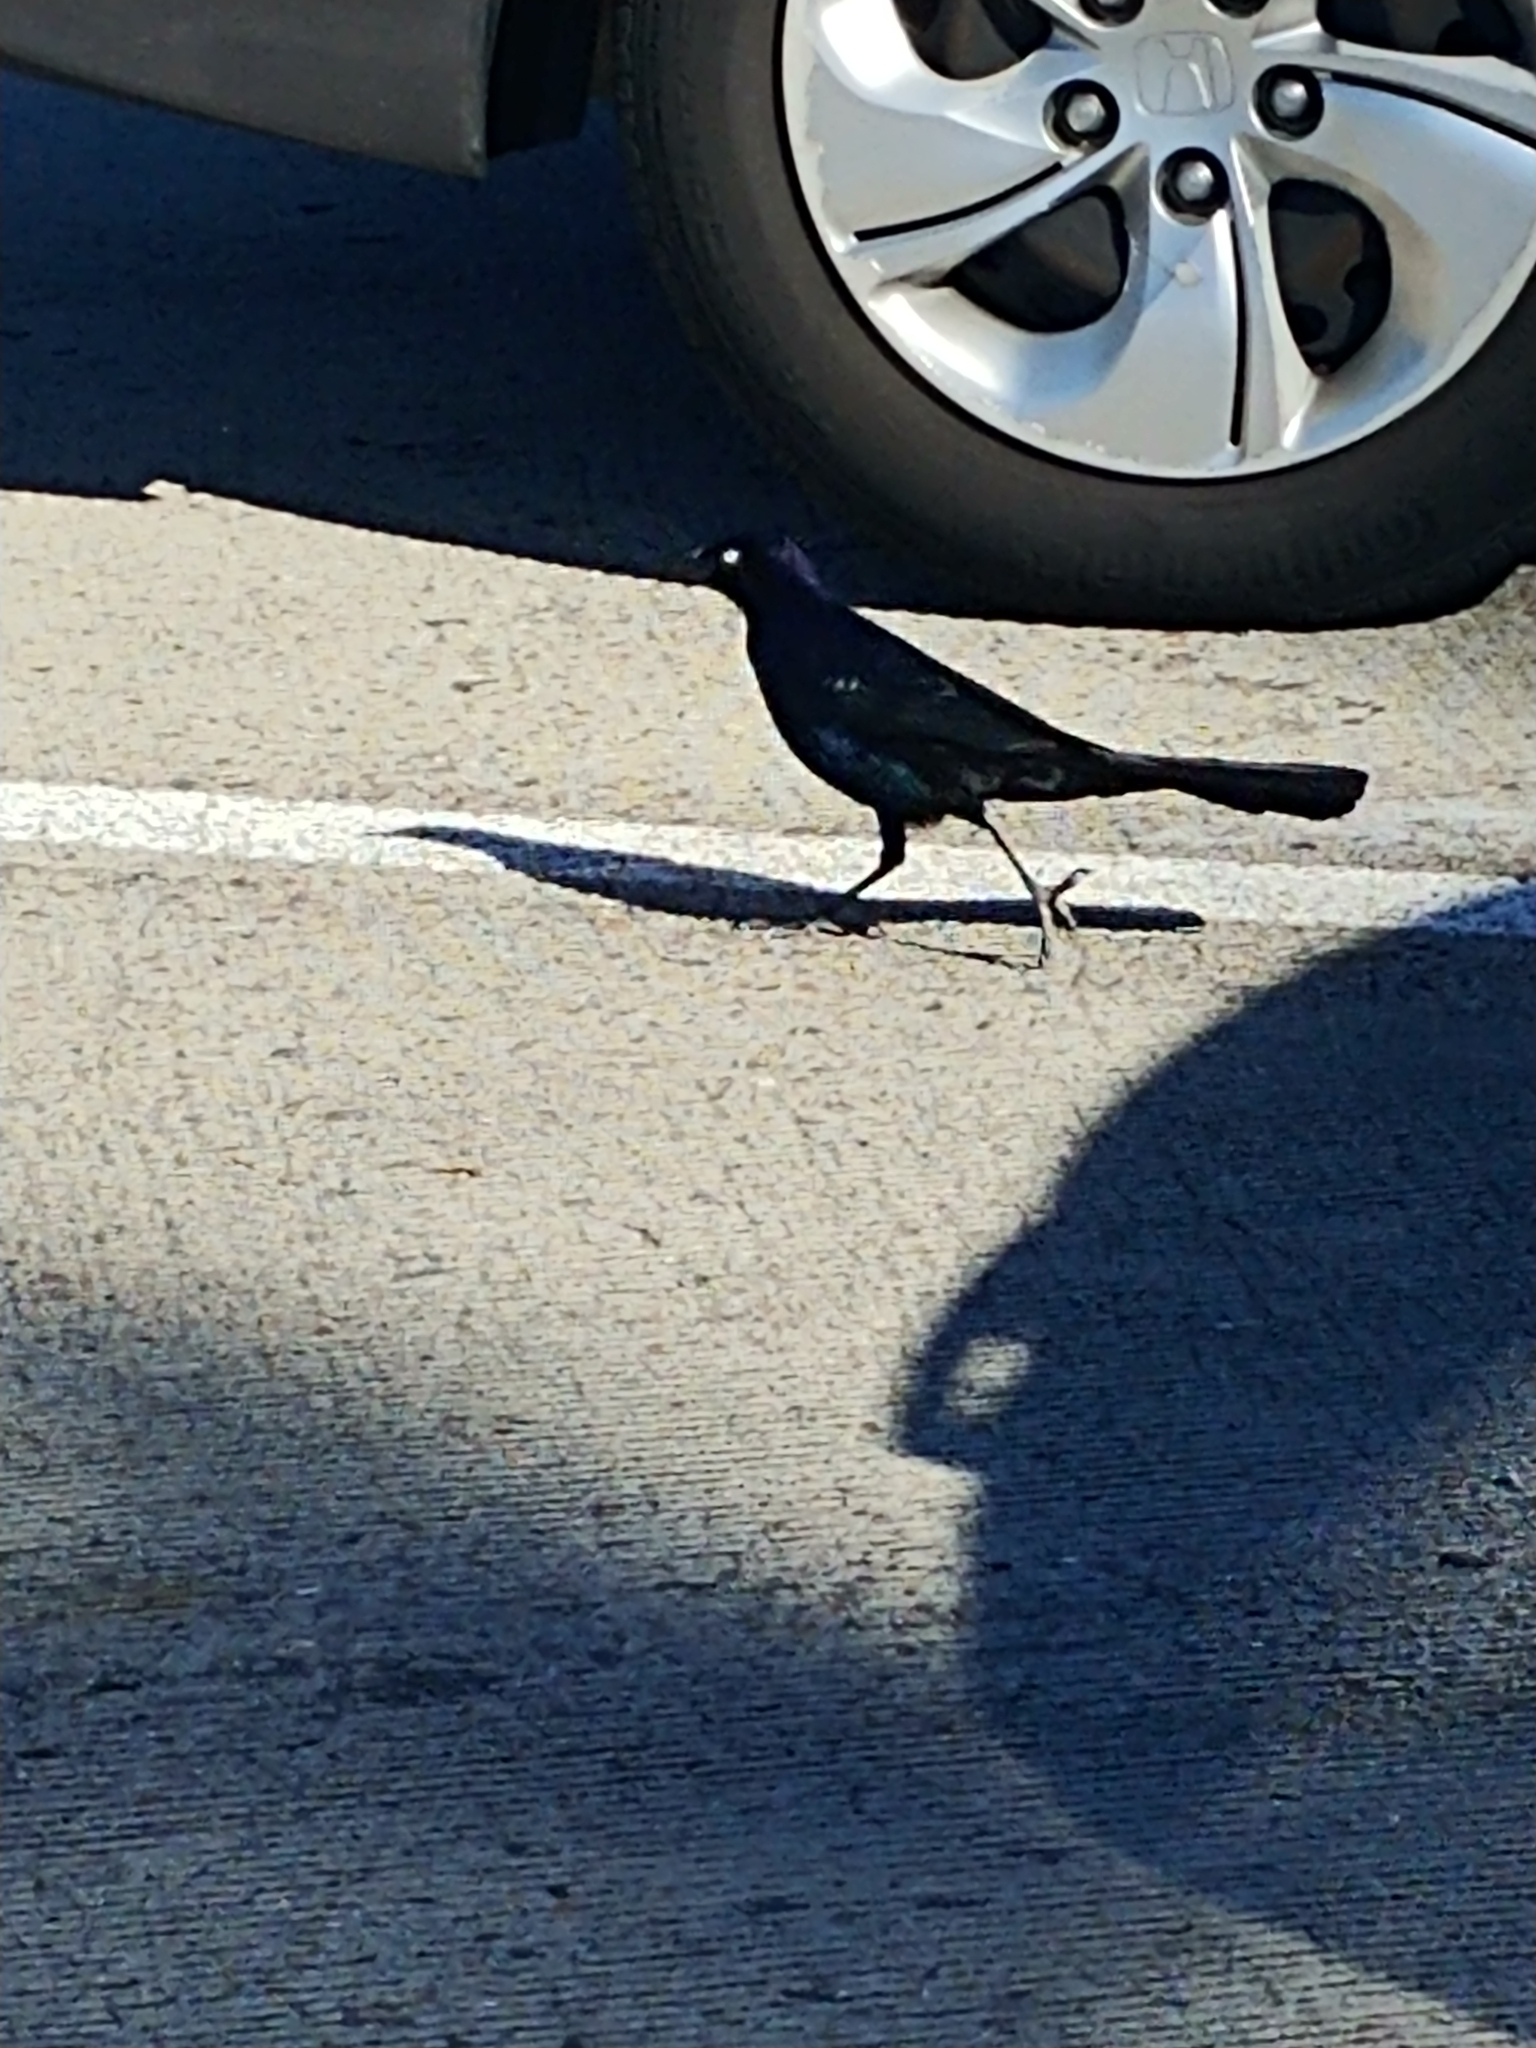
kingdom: Animalia
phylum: Chordata
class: Aves
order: Passeriformes
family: Icteridae
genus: Quiscalus
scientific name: Quiscalus major
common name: Boat-tailed grackle
